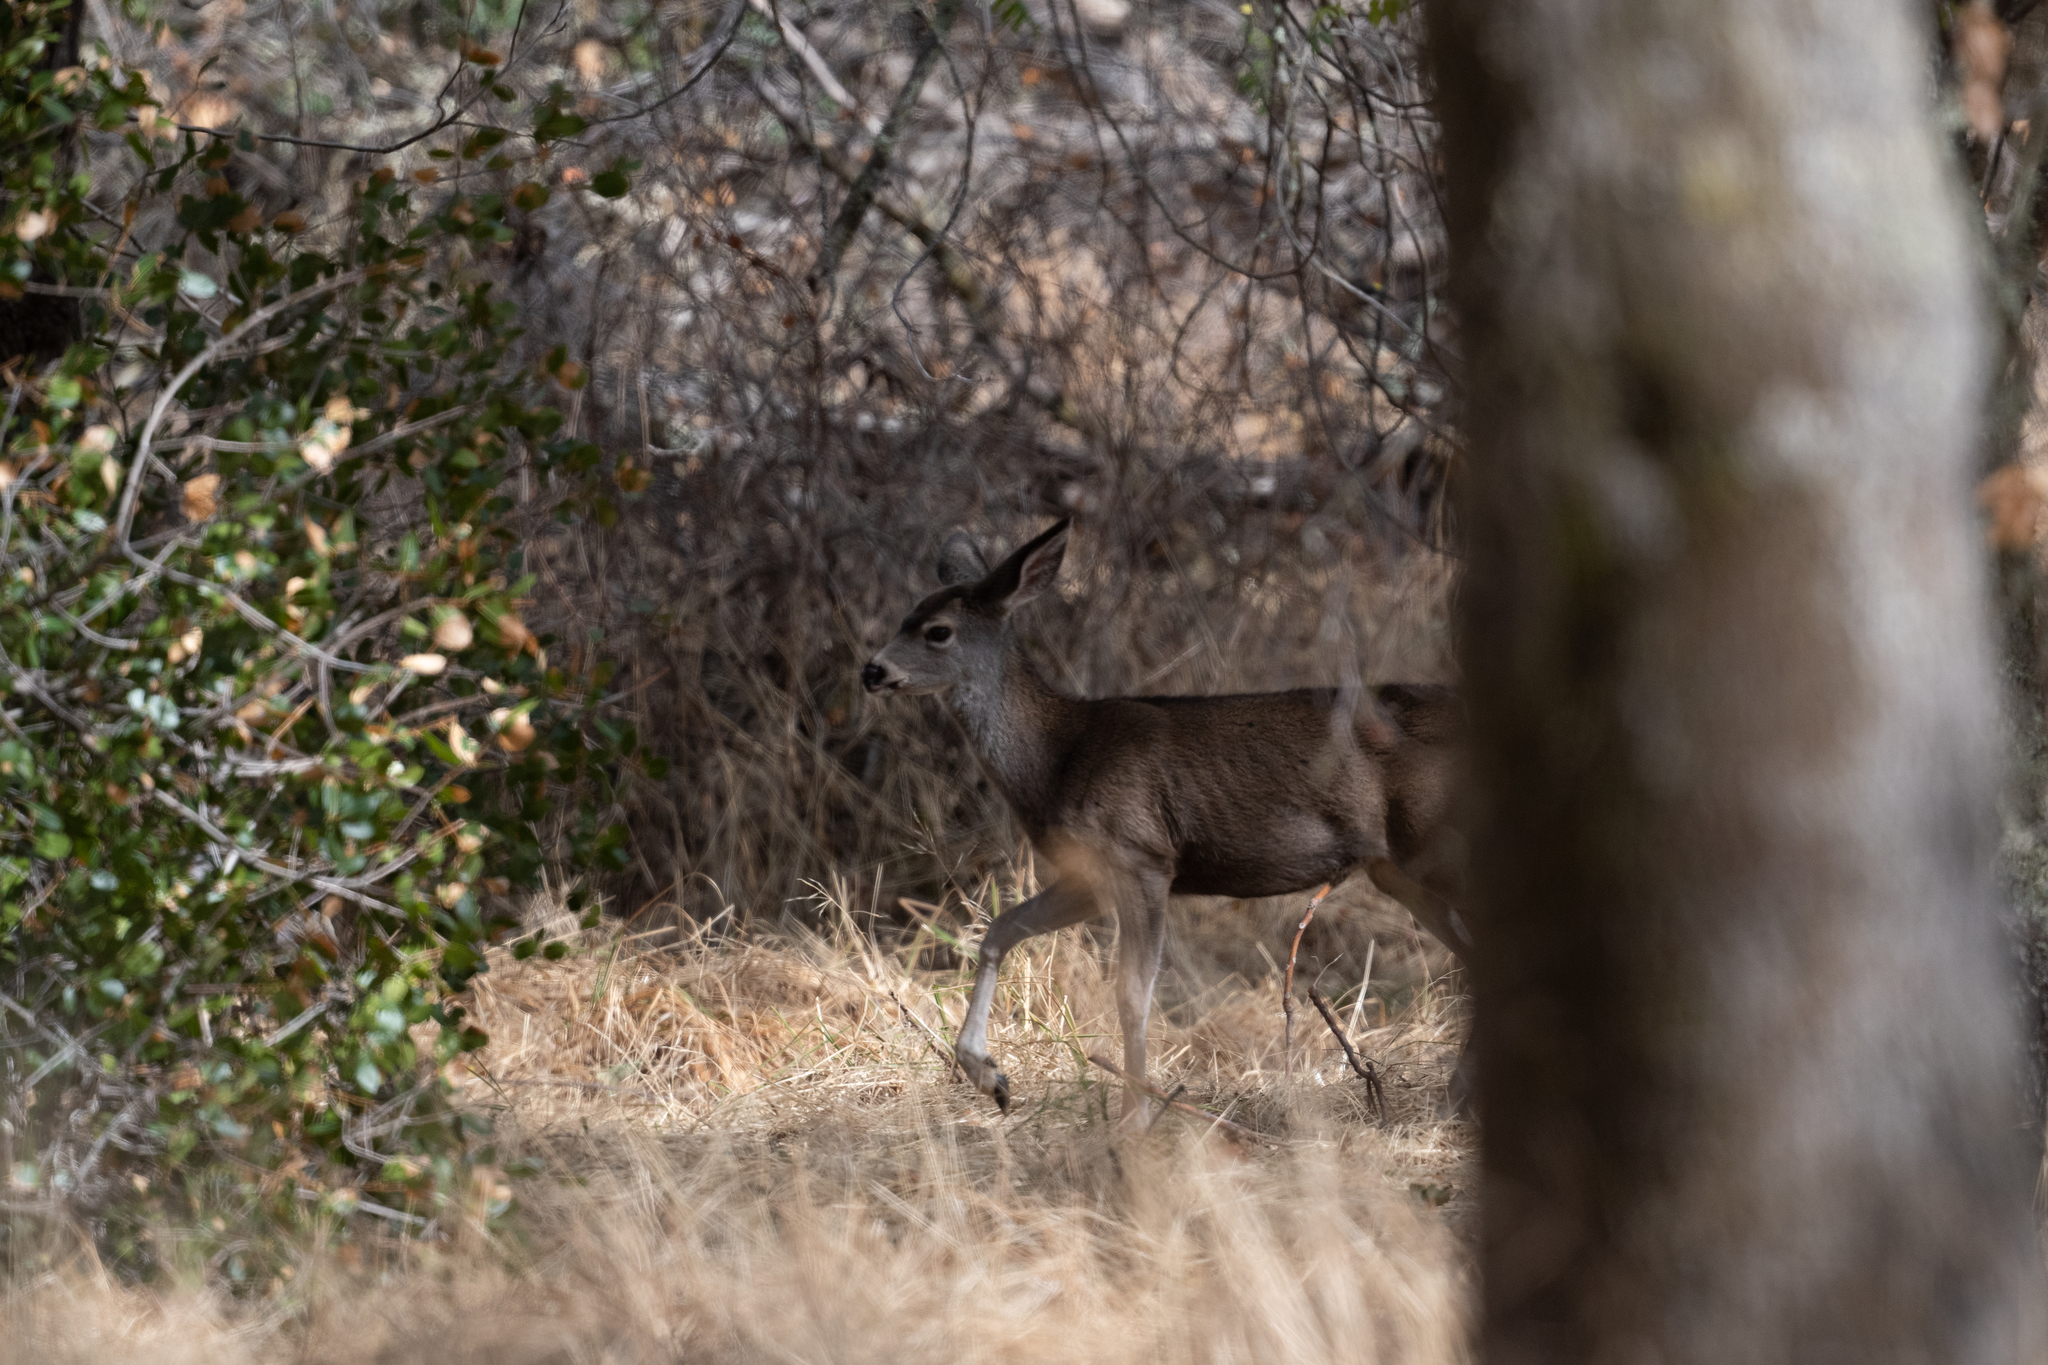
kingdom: Animalia
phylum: Chordata
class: Mammalia
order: Artiodactyla
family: Cervidae
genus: Odocoileus
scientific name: Odocoileus hemionus
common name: Mule deer
